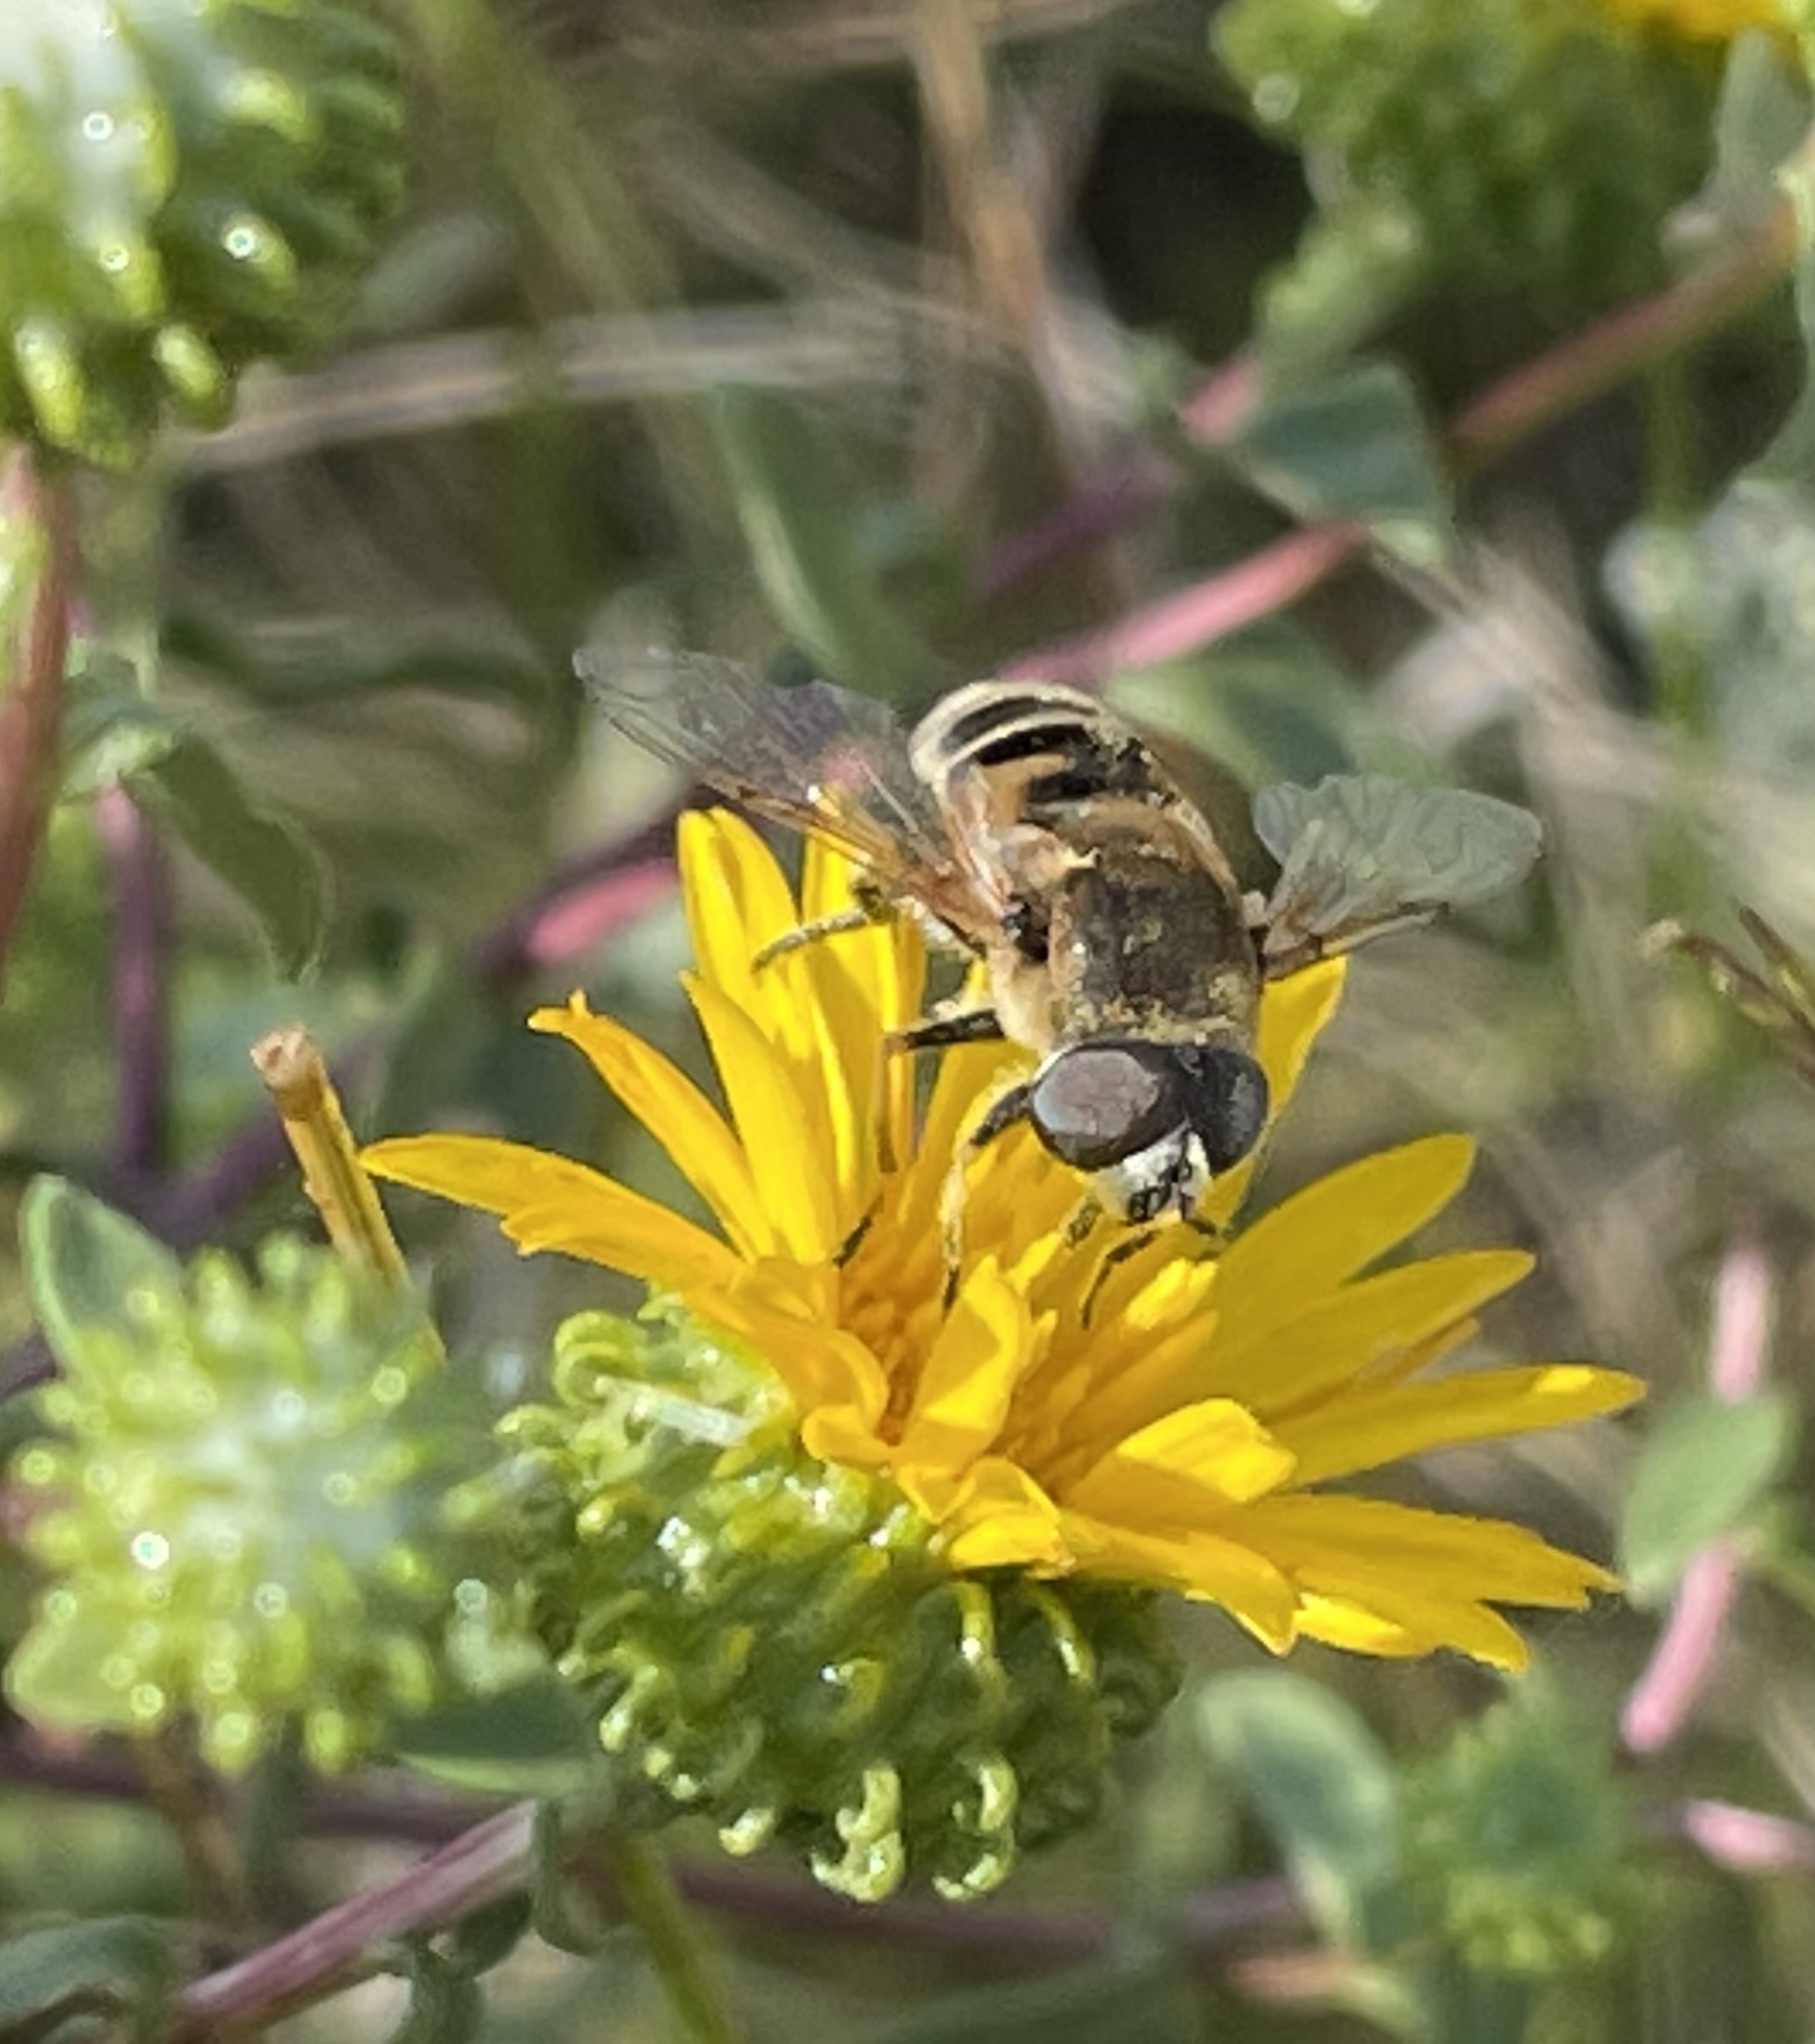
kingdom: Animalia
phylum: Arthropoda
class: Insecta
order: Diptera
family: Syrphidae
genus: Eristalis
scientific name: Eristalis stipator
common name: Yellow-shouldered drone fly
